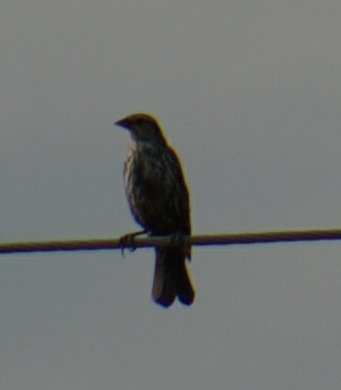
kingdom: Animalia
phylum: Chordata
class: Aves
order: Passeriformes
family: Icteridae
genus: Agelaius
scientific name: Agelaius phoeniceus
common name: Red-winged blackbird
